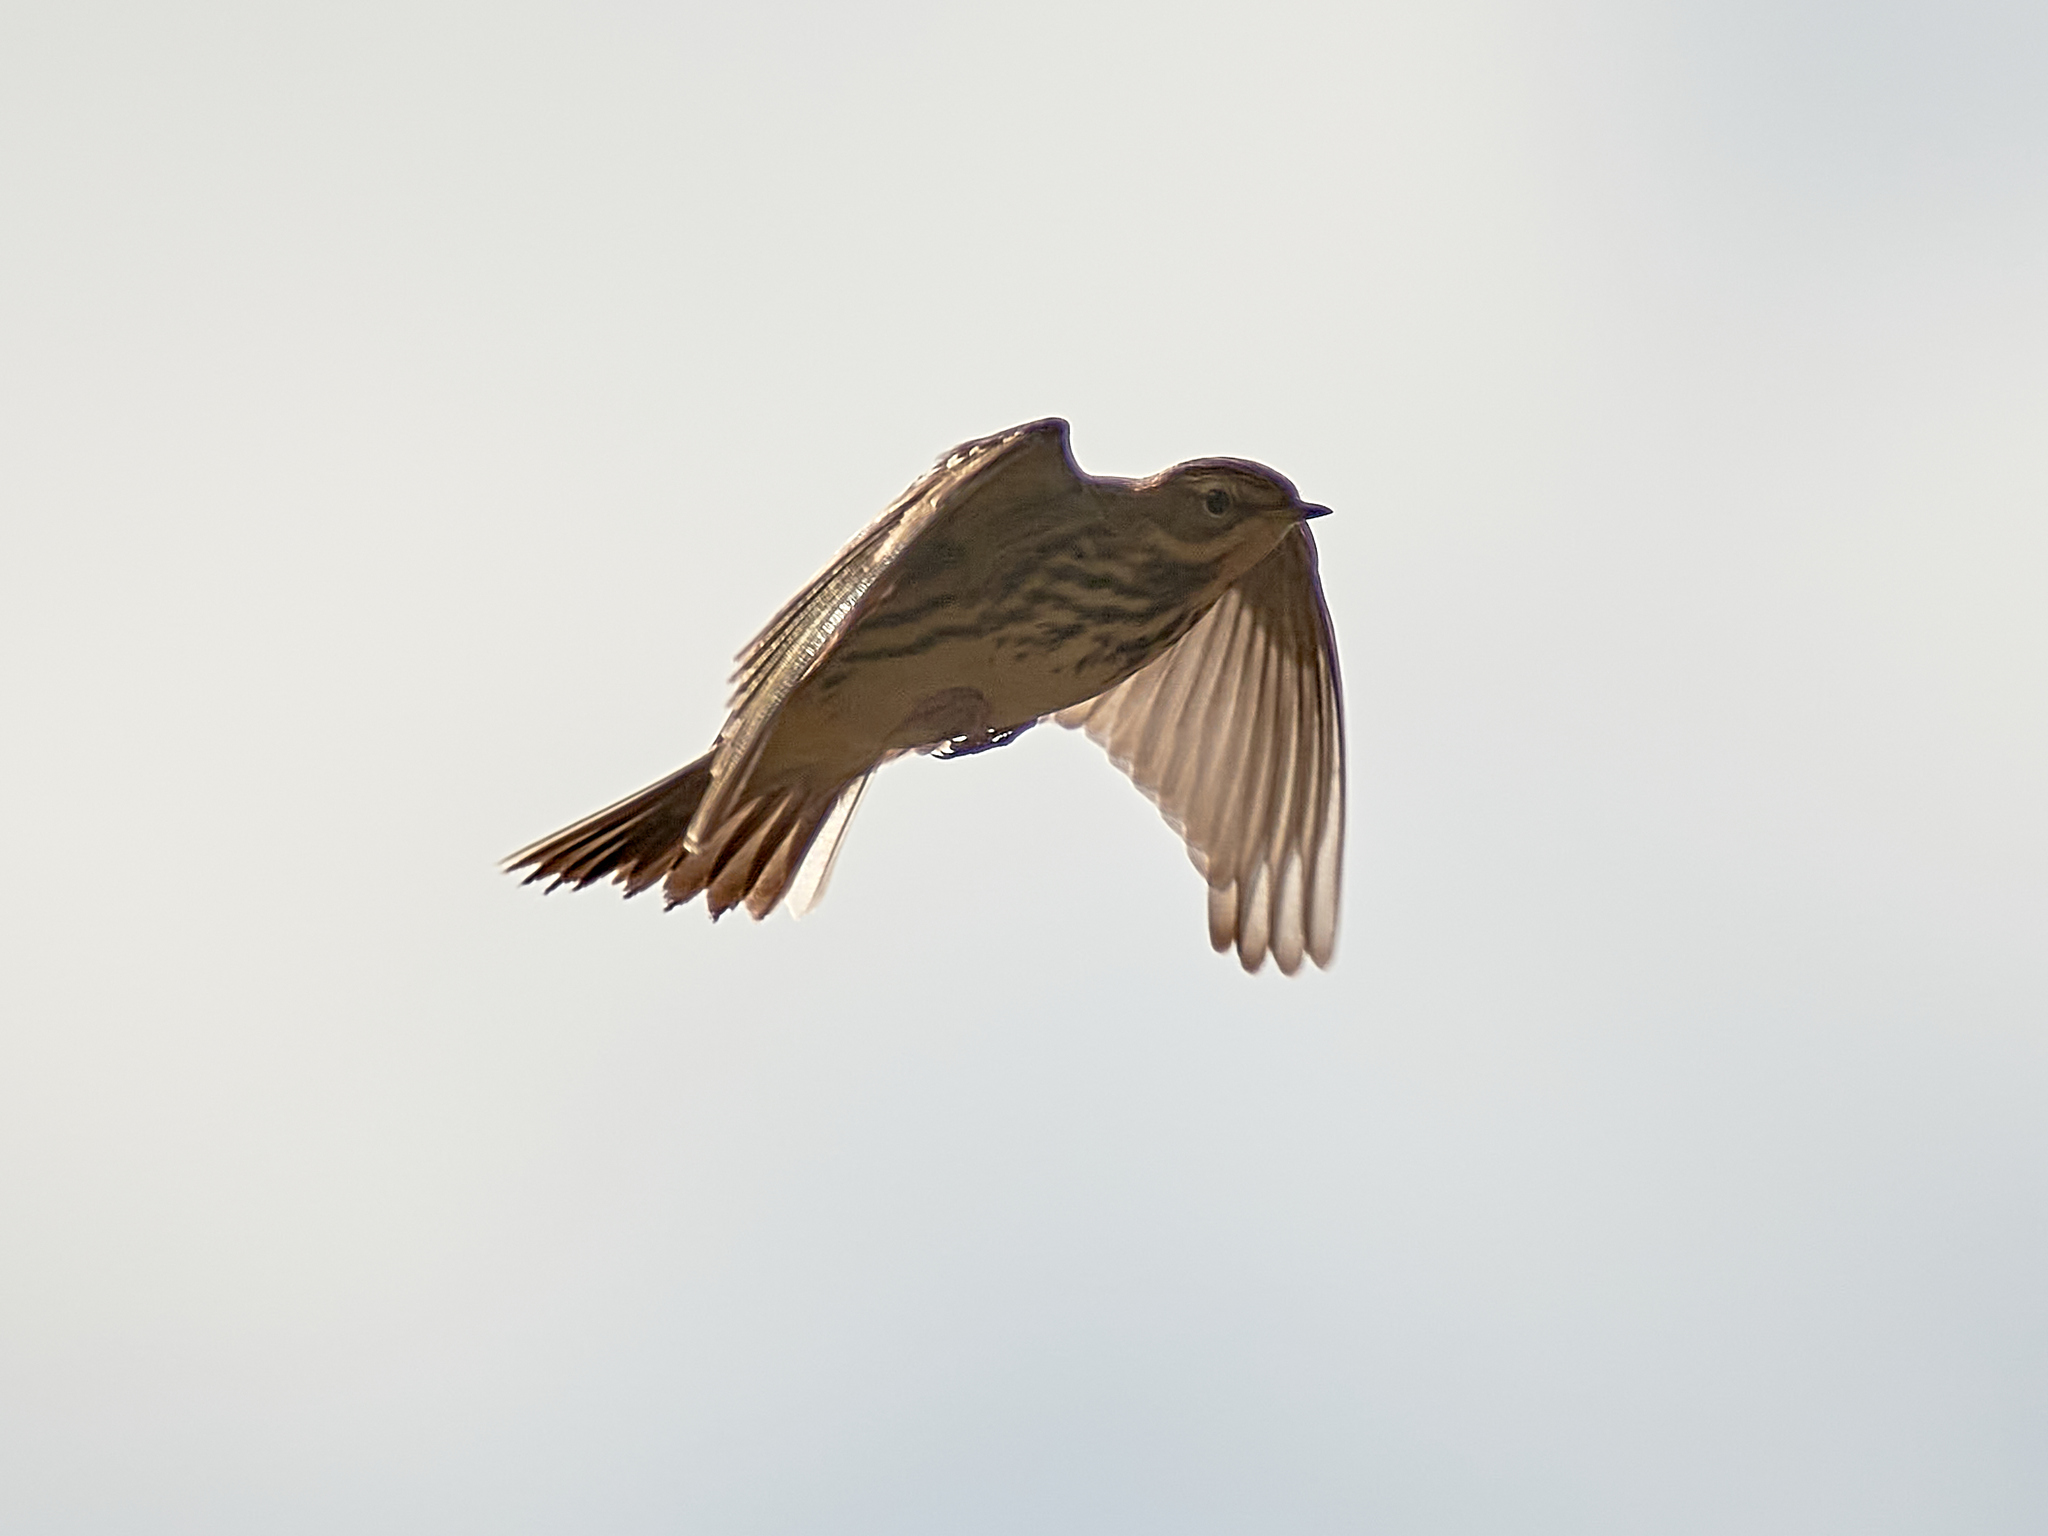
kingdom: Animalia
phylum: Chordata
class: Aves
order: Passeriformes
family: Motacillidae
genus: Anthus
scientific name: Anthus cervinus
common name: Red-throated pipit
